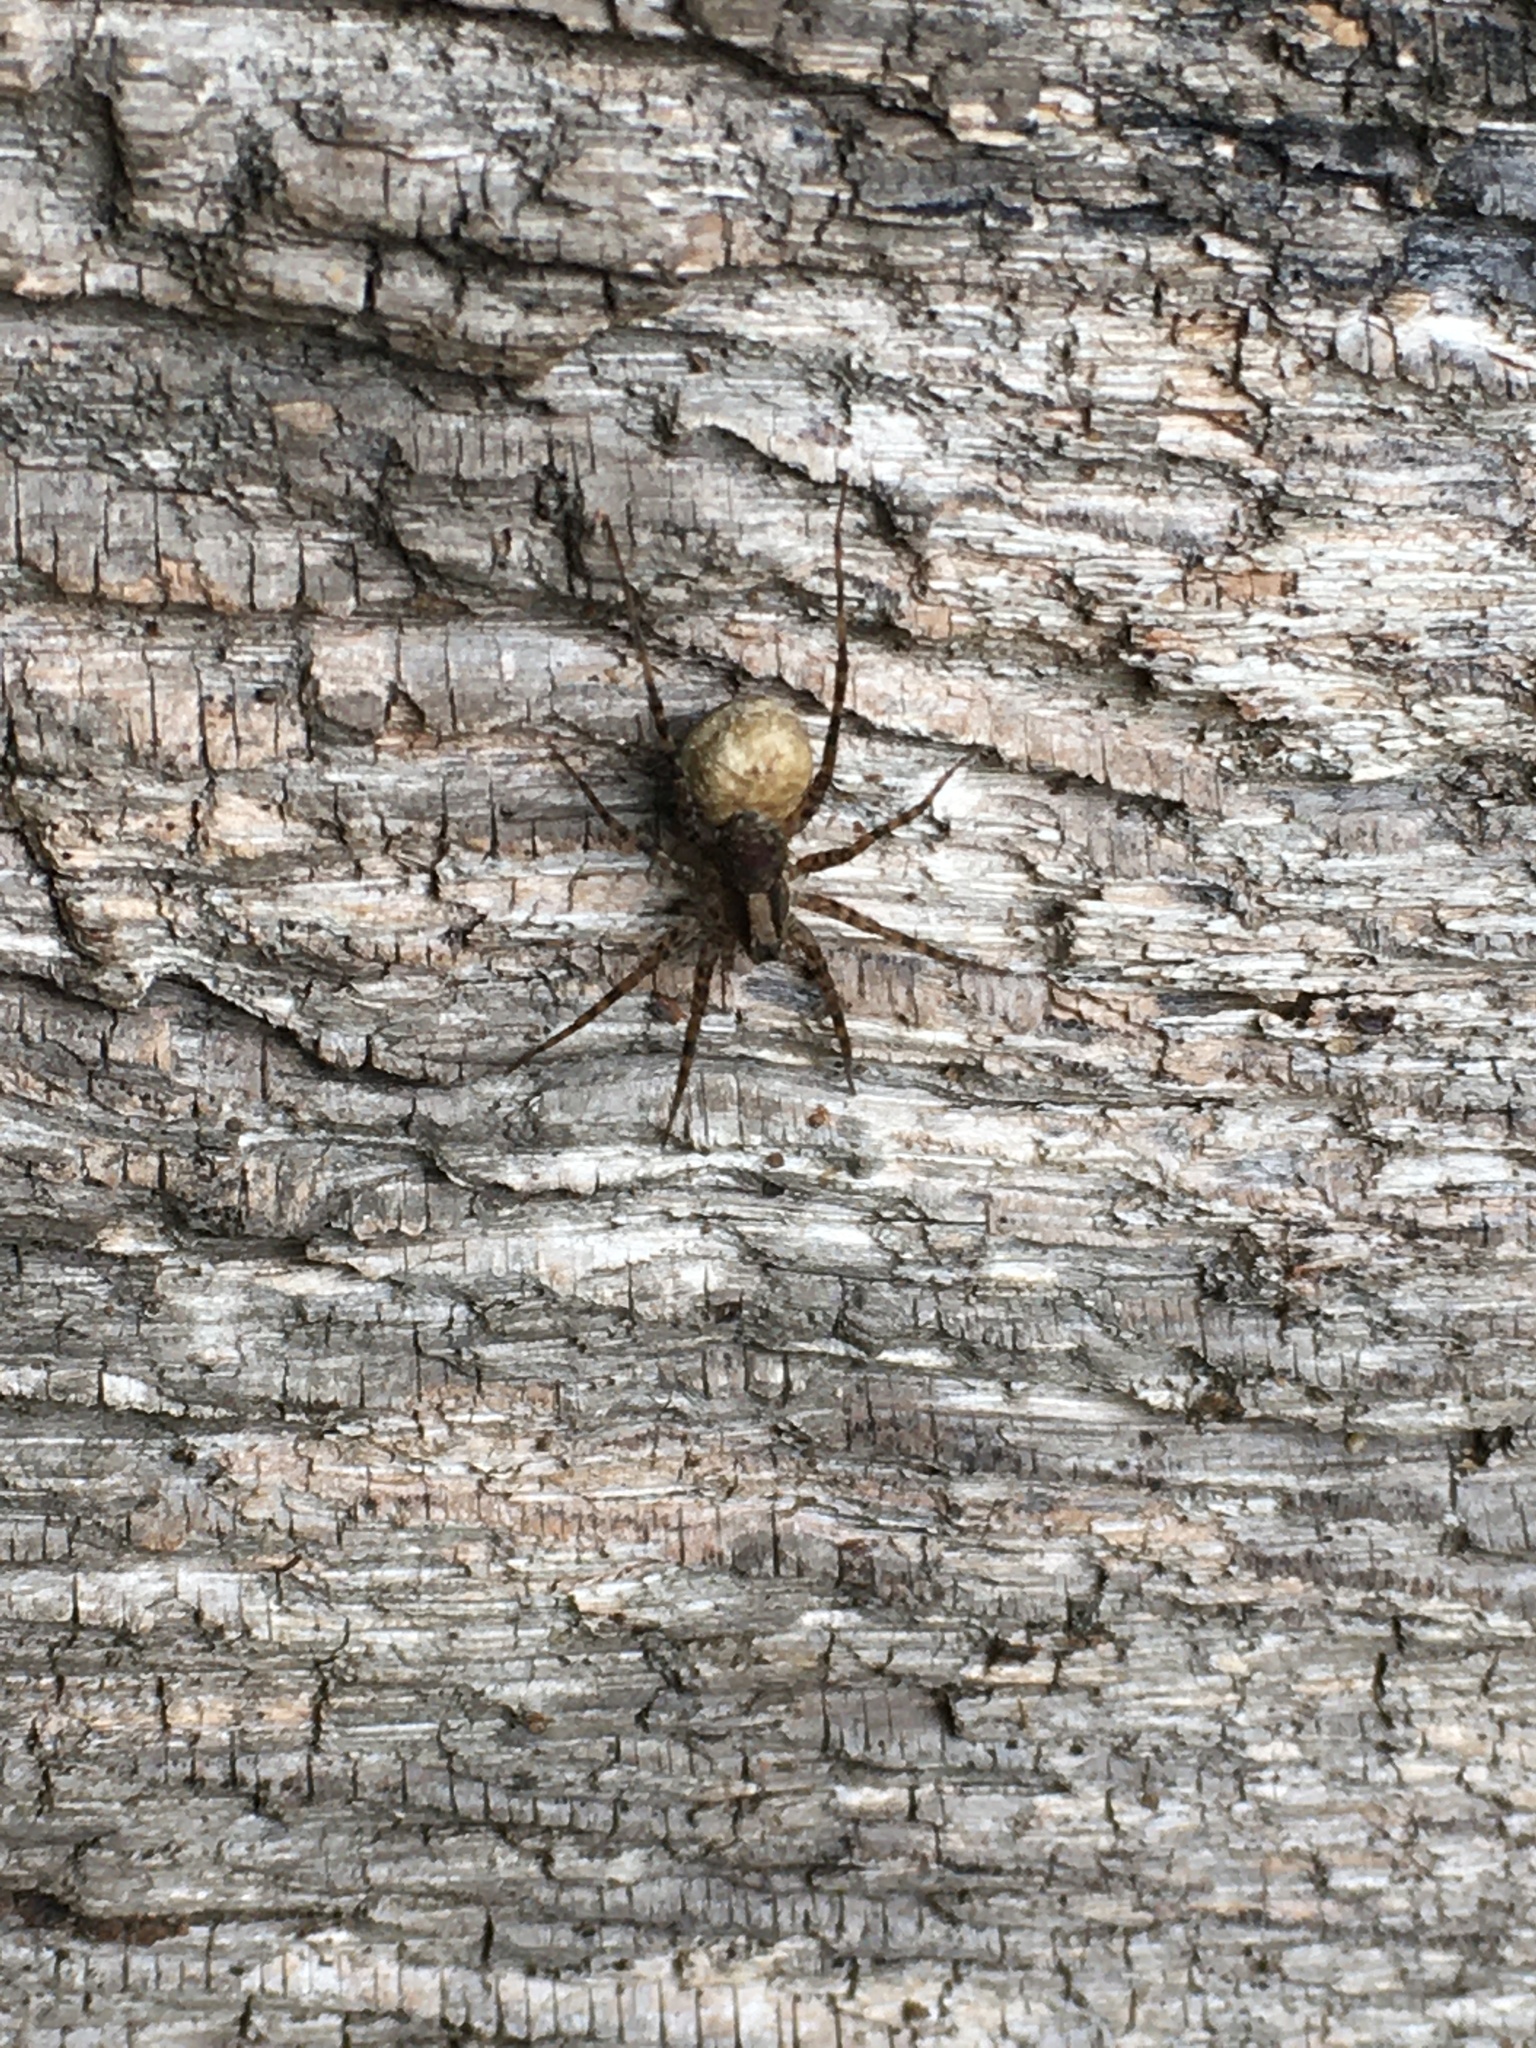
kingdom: Animalia
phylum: Arthropoda
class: Arachnida
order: Araneae
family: Lycosidae
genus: Pardosa
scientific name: Pardosa
